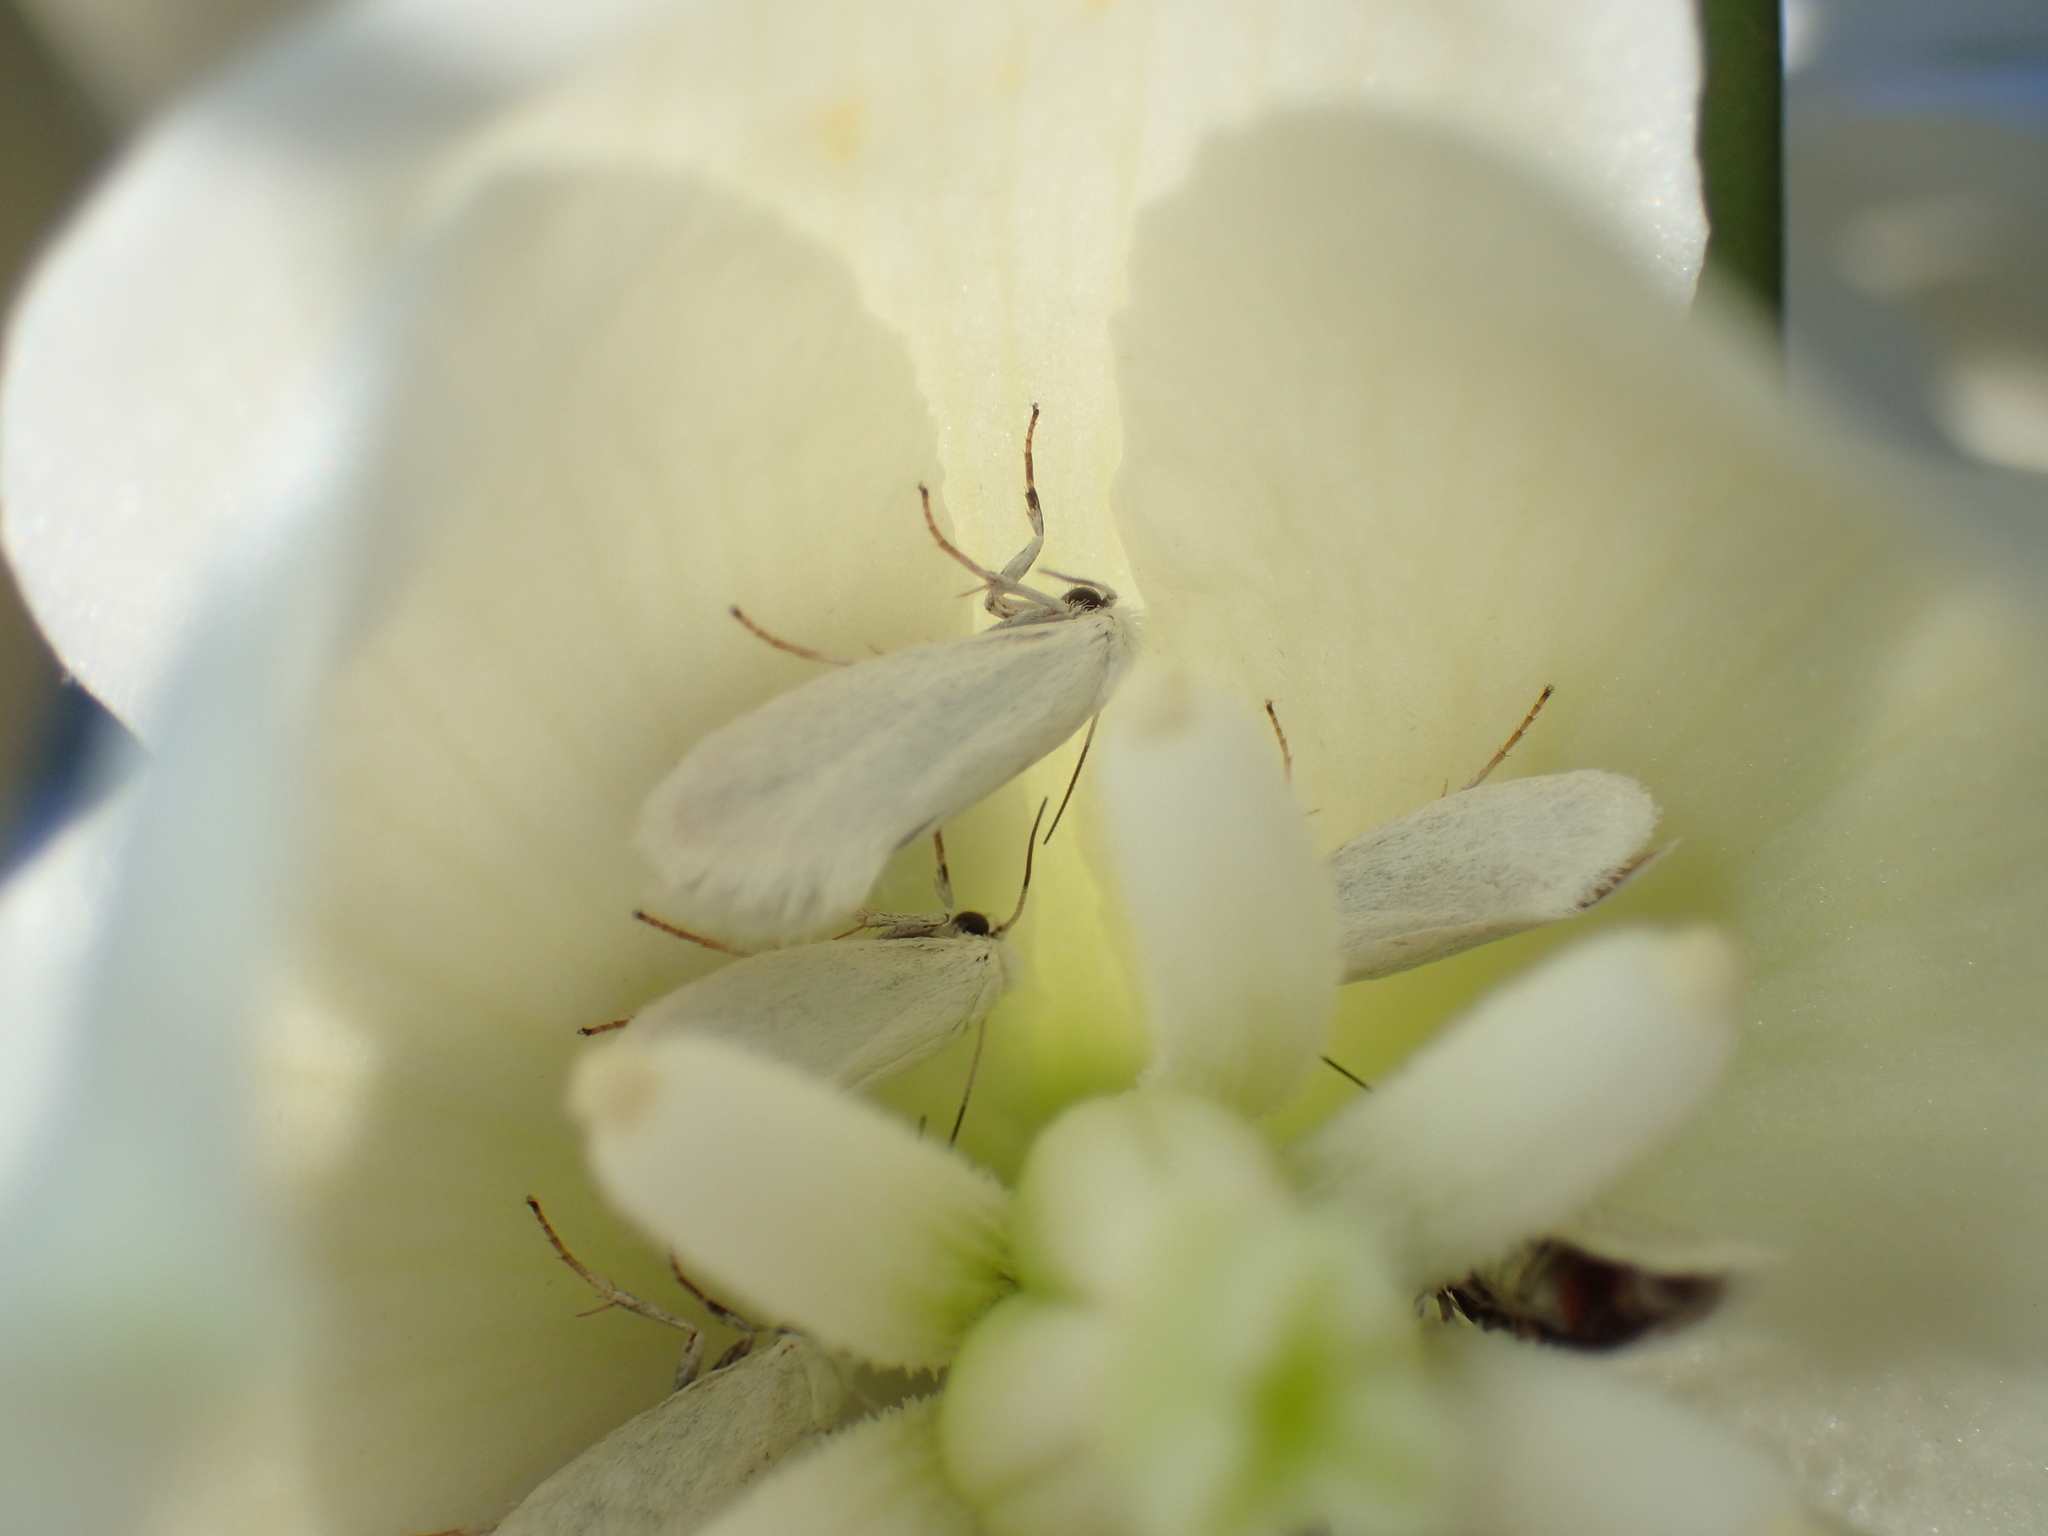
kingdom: Animalia
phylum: Arthropoda
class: Insecta
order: Lepidoptera
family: Prodoxidae
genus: Prodoxus
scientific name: Prodoxus decipiens
